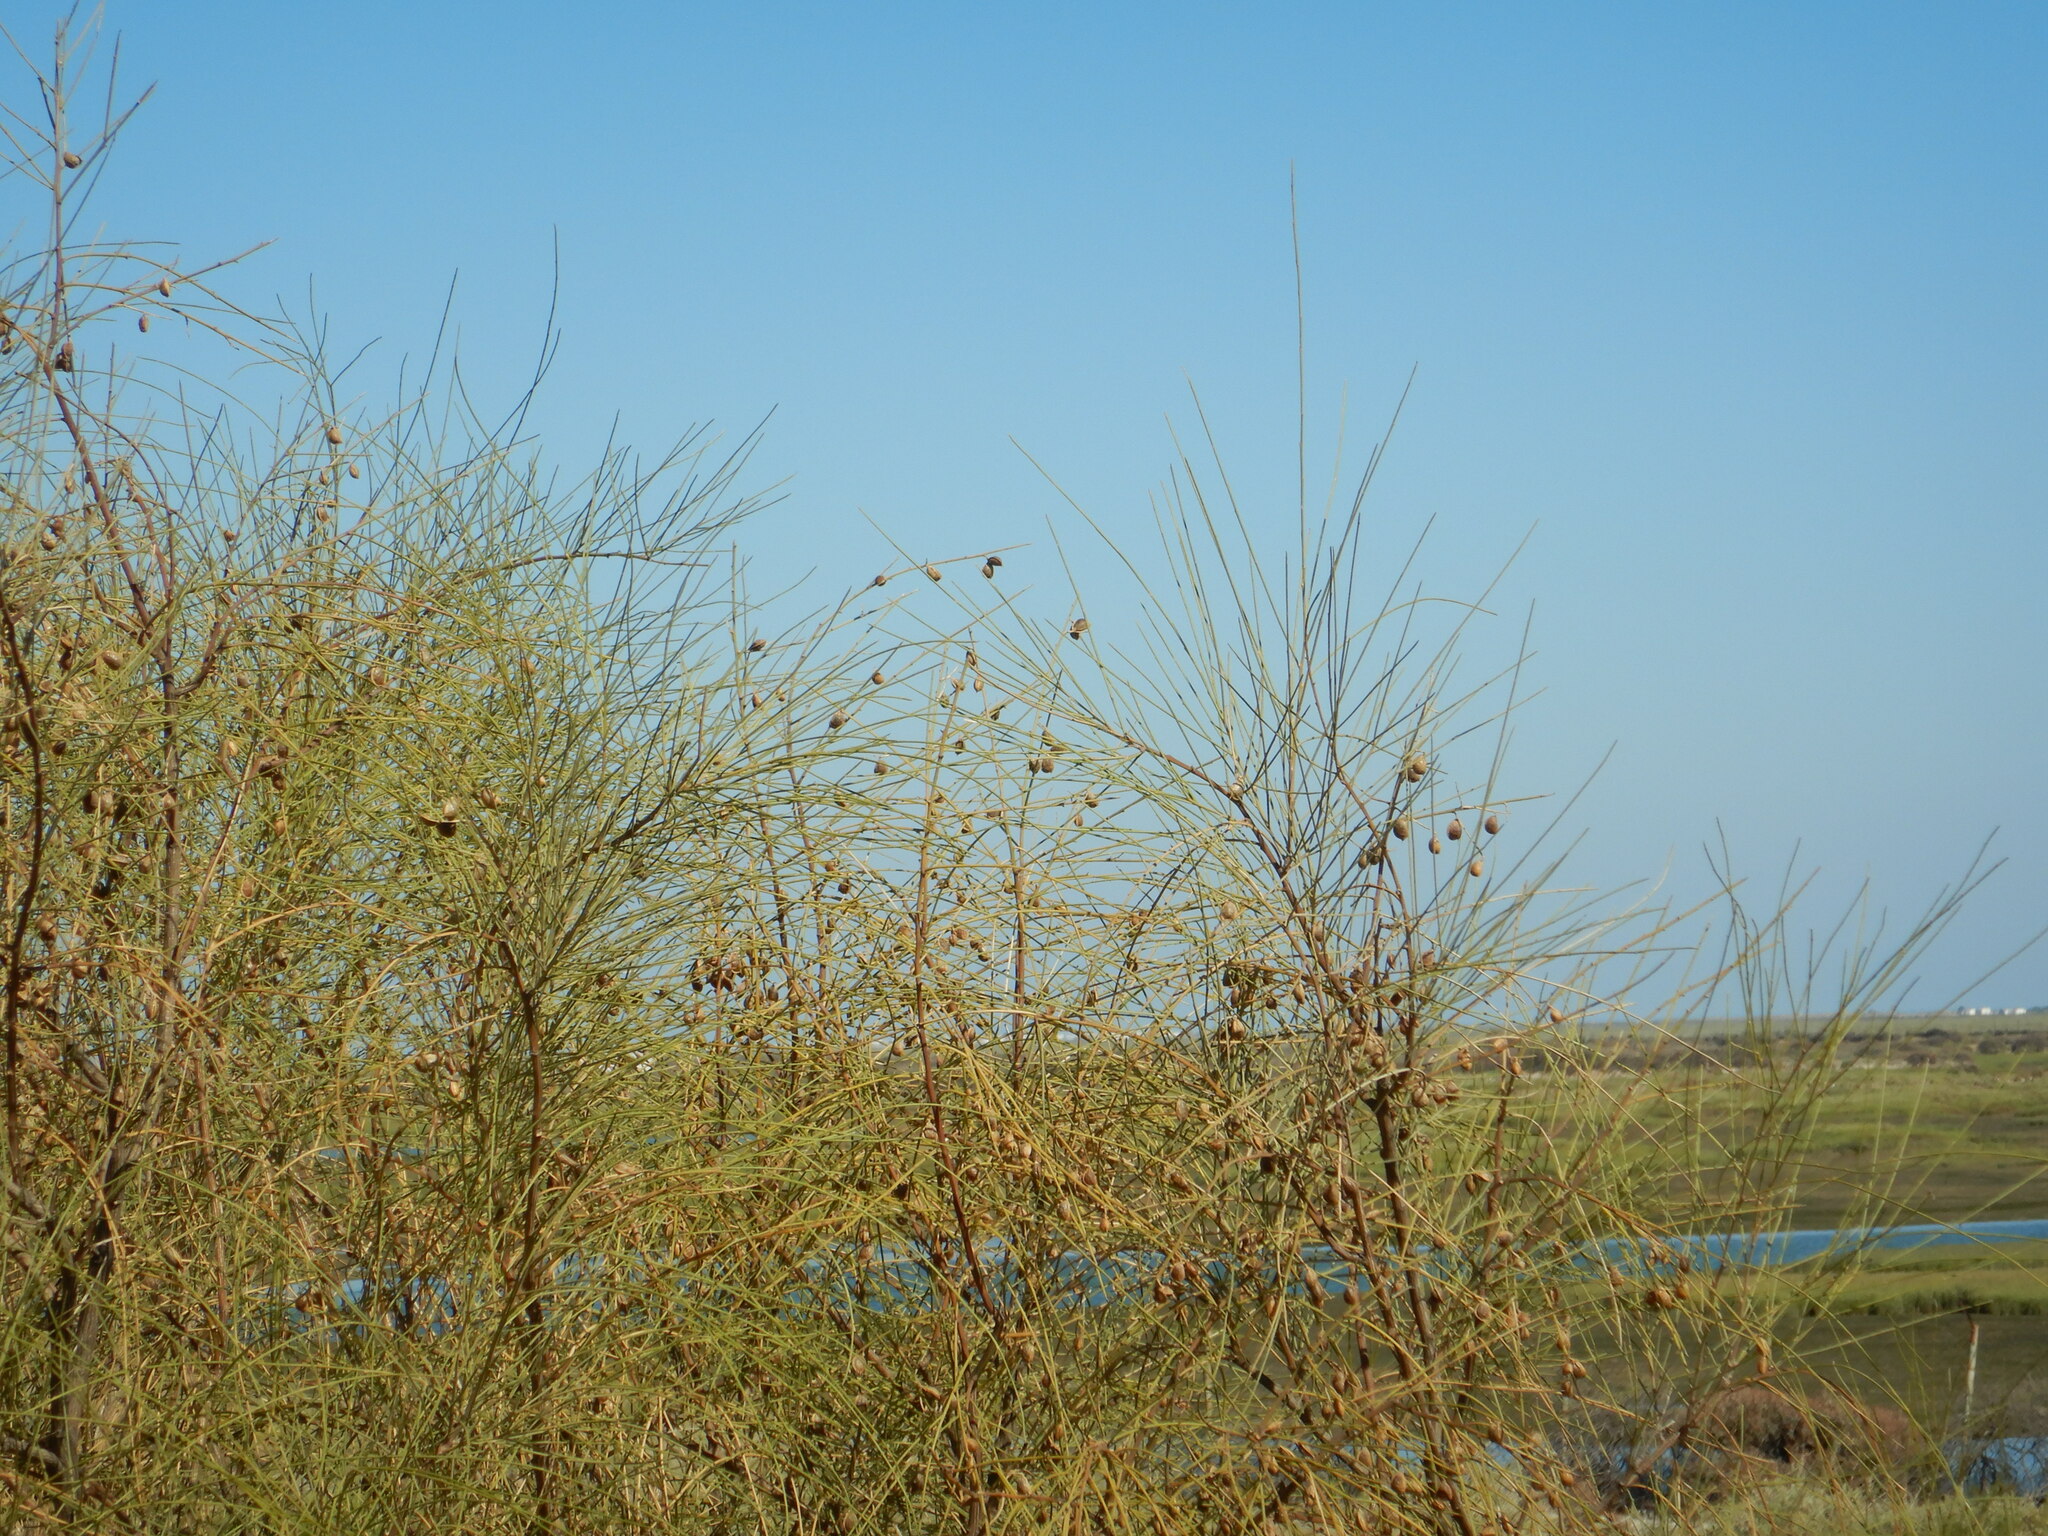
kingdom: Plantae
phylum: Tracheophyta
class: Magnoliopsida
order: Fabales
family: Fabaceae
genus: Retama
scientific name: Retama monosperma
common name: Bridal broom
